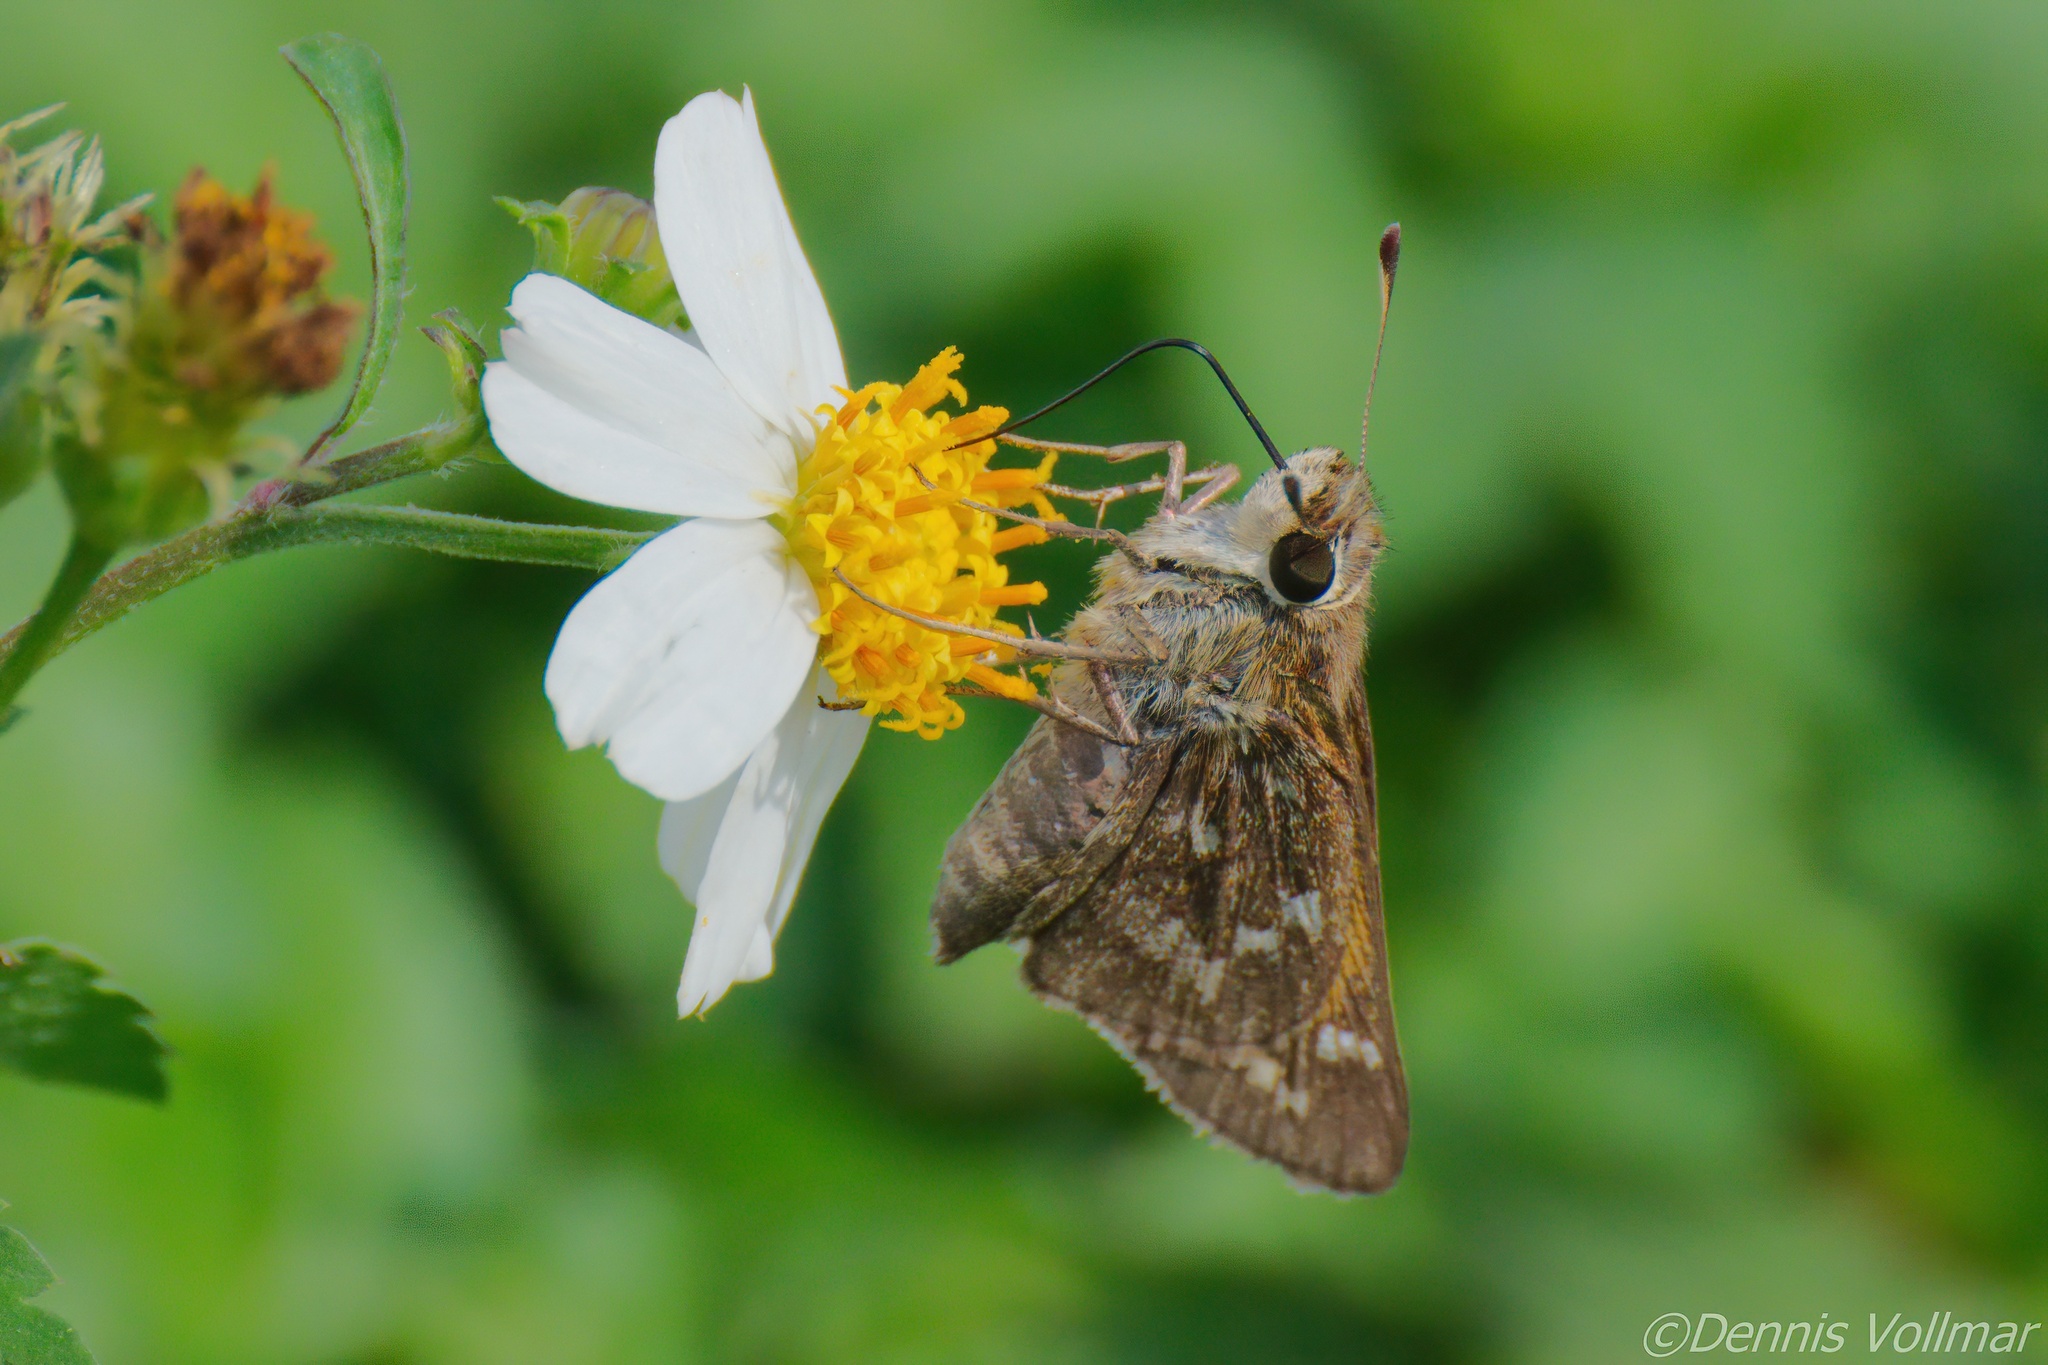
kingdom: Animalia
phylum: Arthropoda
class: Insecta
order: Lepidoptera
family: Hesperiidae
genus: Atalopedes
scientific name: Atalopedes
